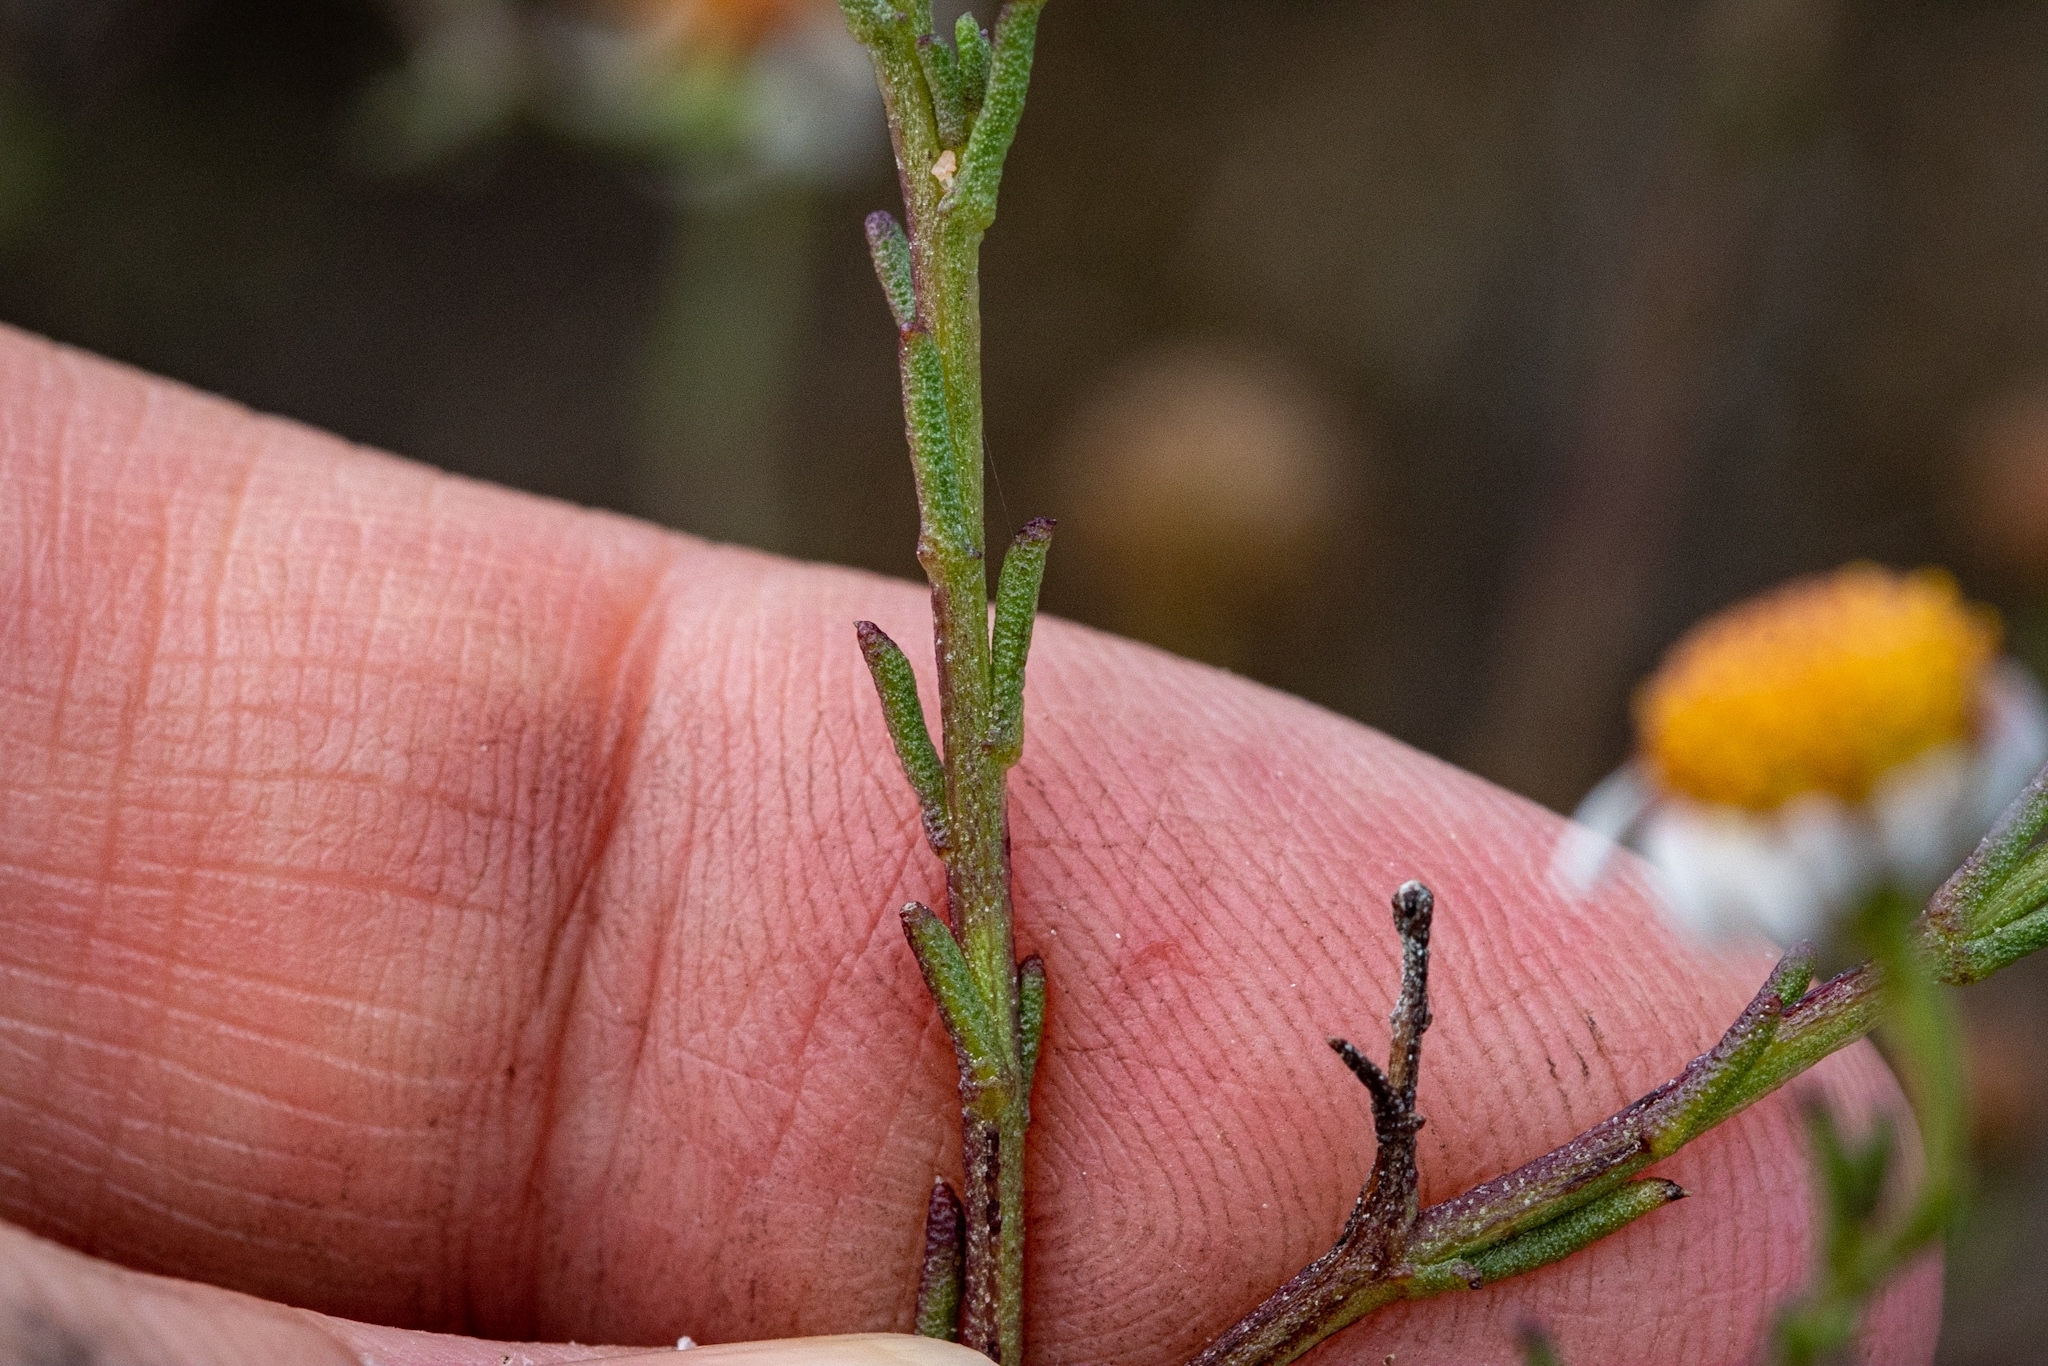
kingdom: Plantae
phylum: Tracheophyta
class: Magnoliopsida
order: Asterales
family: Asteraceae
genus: Cymbopappus
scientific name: Cymbopappus adenosolen
